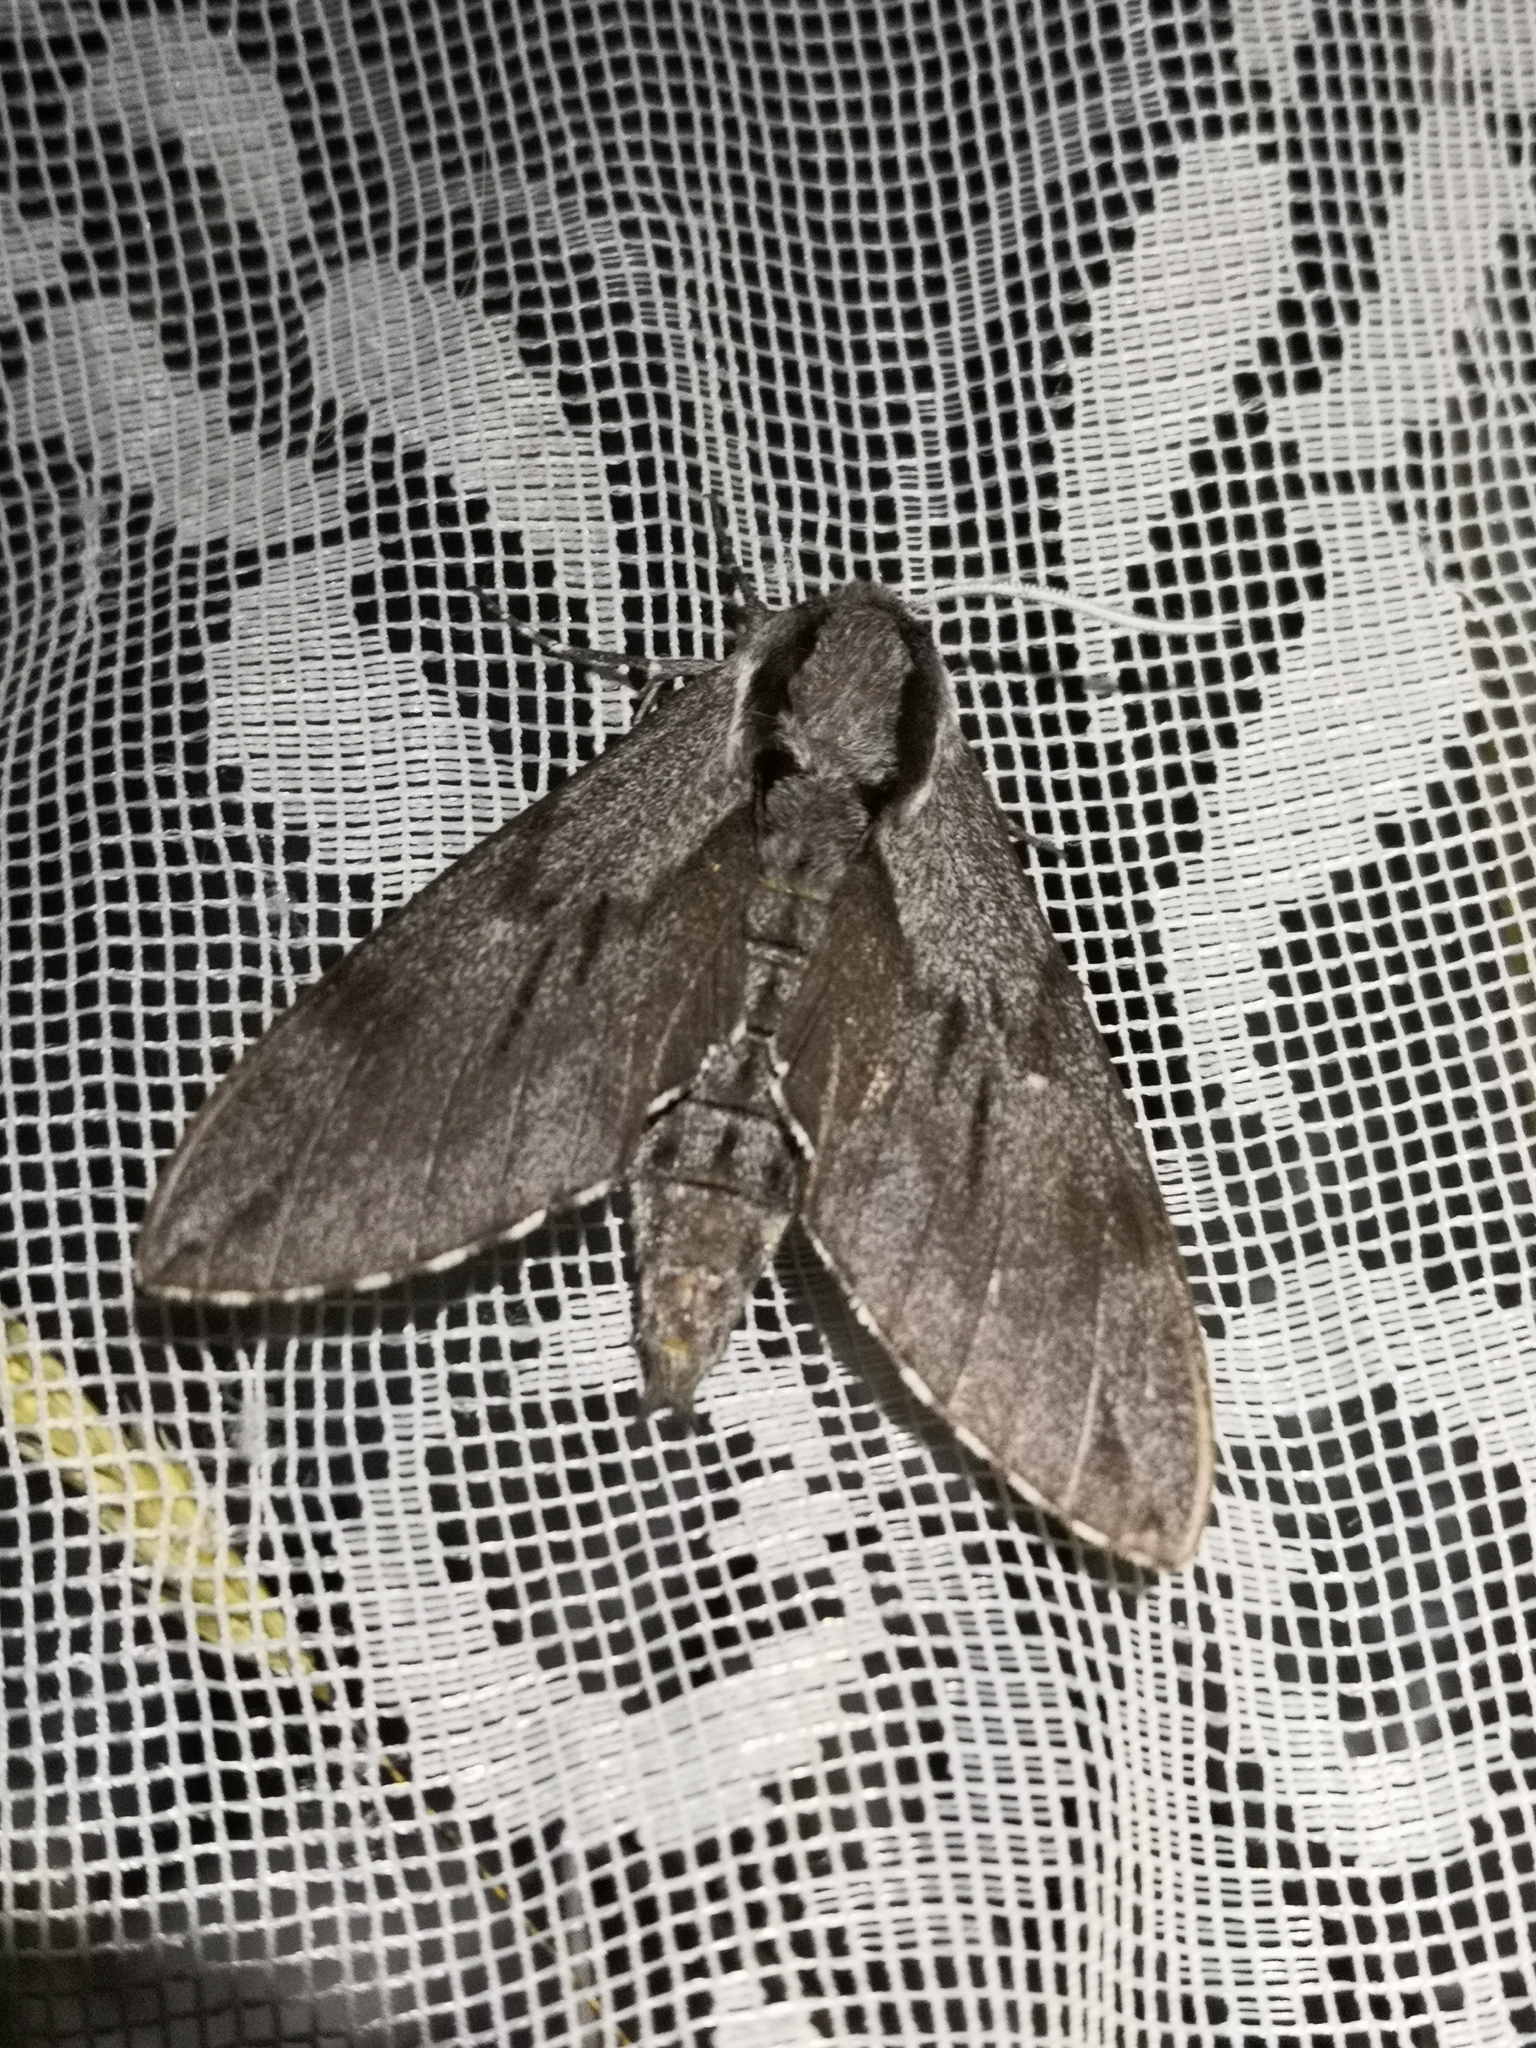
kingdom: Animalia
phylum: Arthropoda
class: Insecta
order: Lepidoptera
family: Sphingidae
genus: Sphinx
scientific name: Sphinx pinastri
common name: Pine hawk-moth
